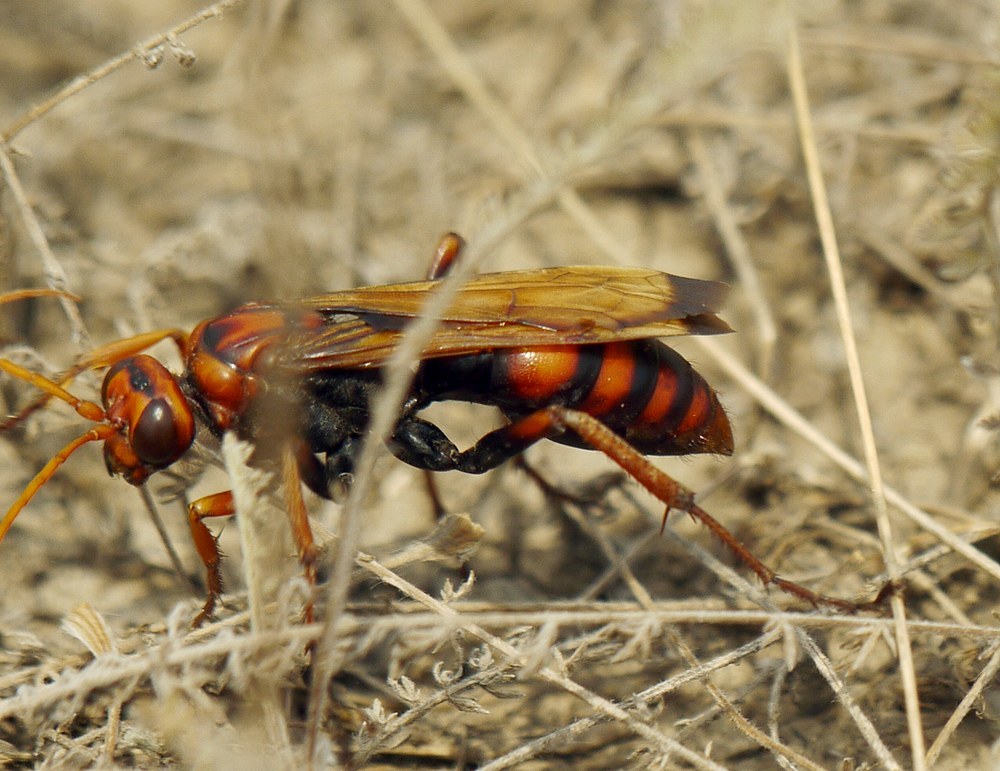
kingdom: Animalia
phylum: Arthropoda
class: Insecta
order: Hymenoptera
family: Pompilidae
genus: Cryptocheilus
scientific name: Cryptocheilus rubellus
